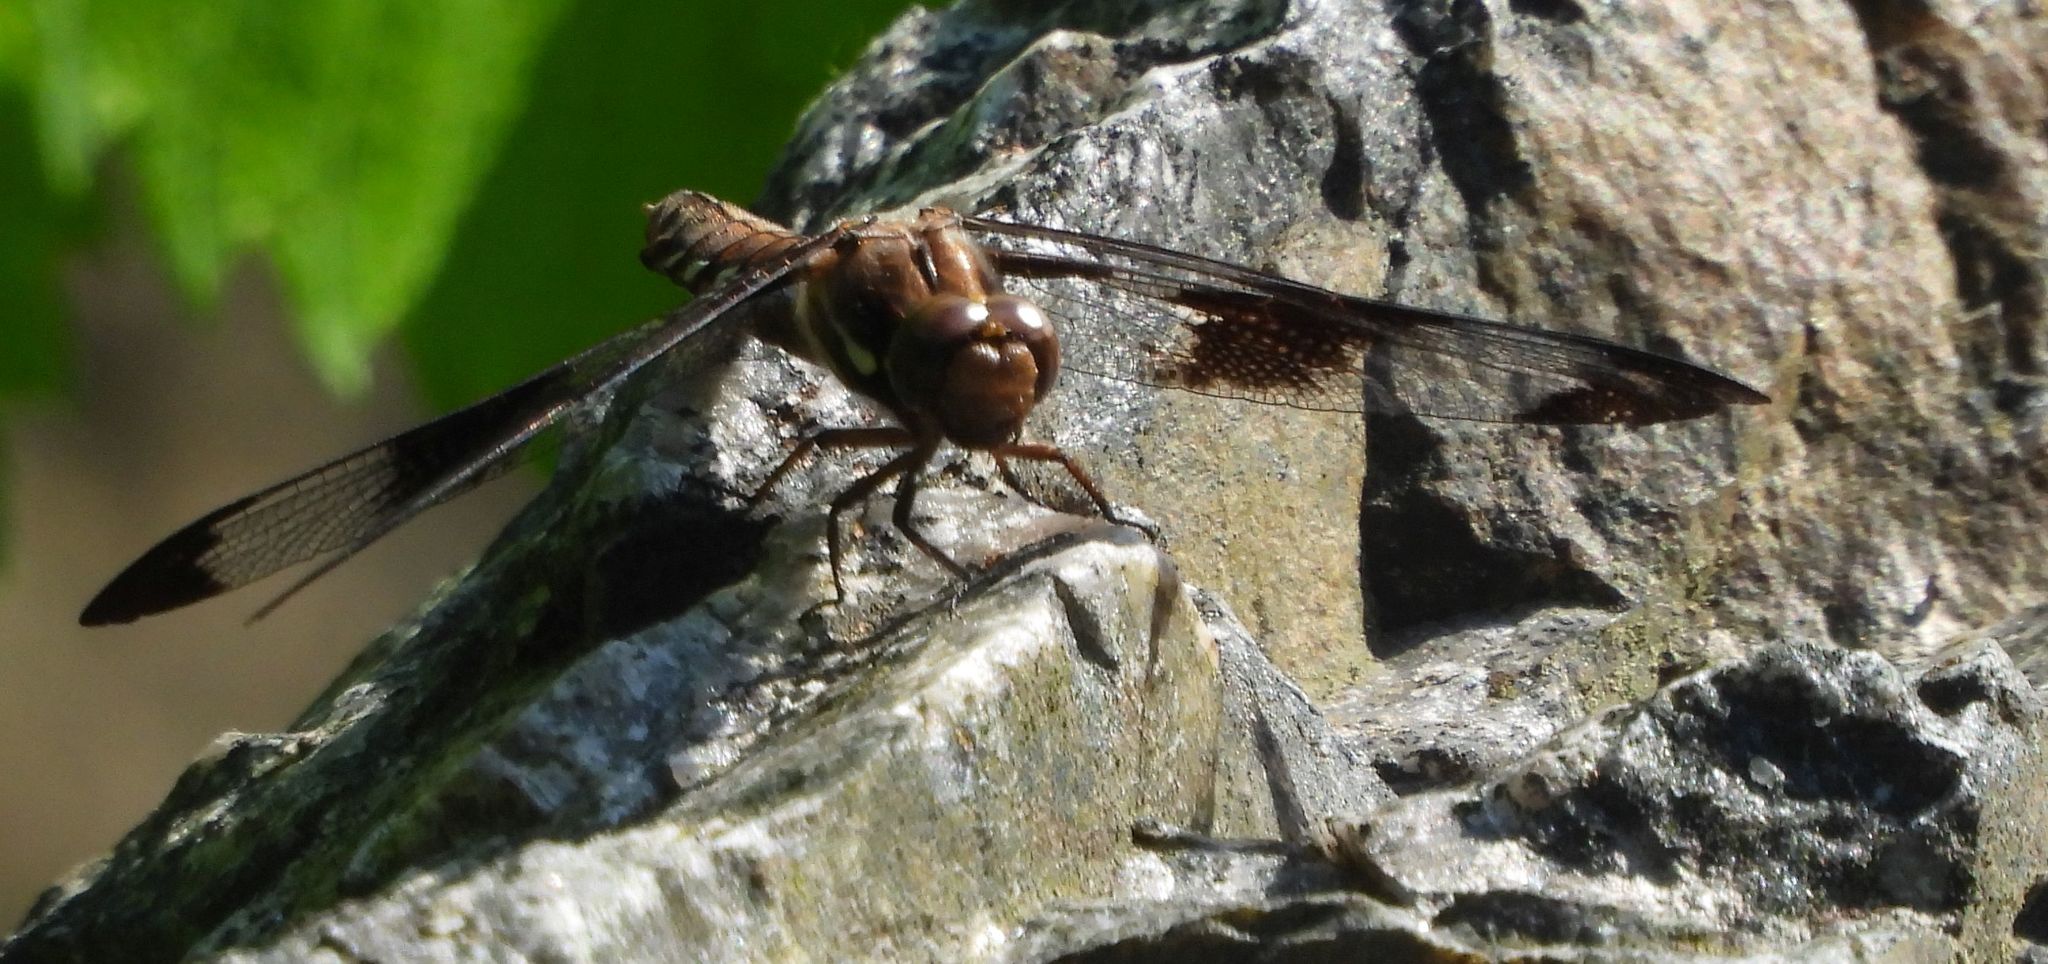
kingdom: Animalia
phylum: Arthropoda
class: Insecta
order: Odonata
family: Libellulidae
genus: Plathemis
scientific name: Plathemis lydia
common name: Common whitetail
